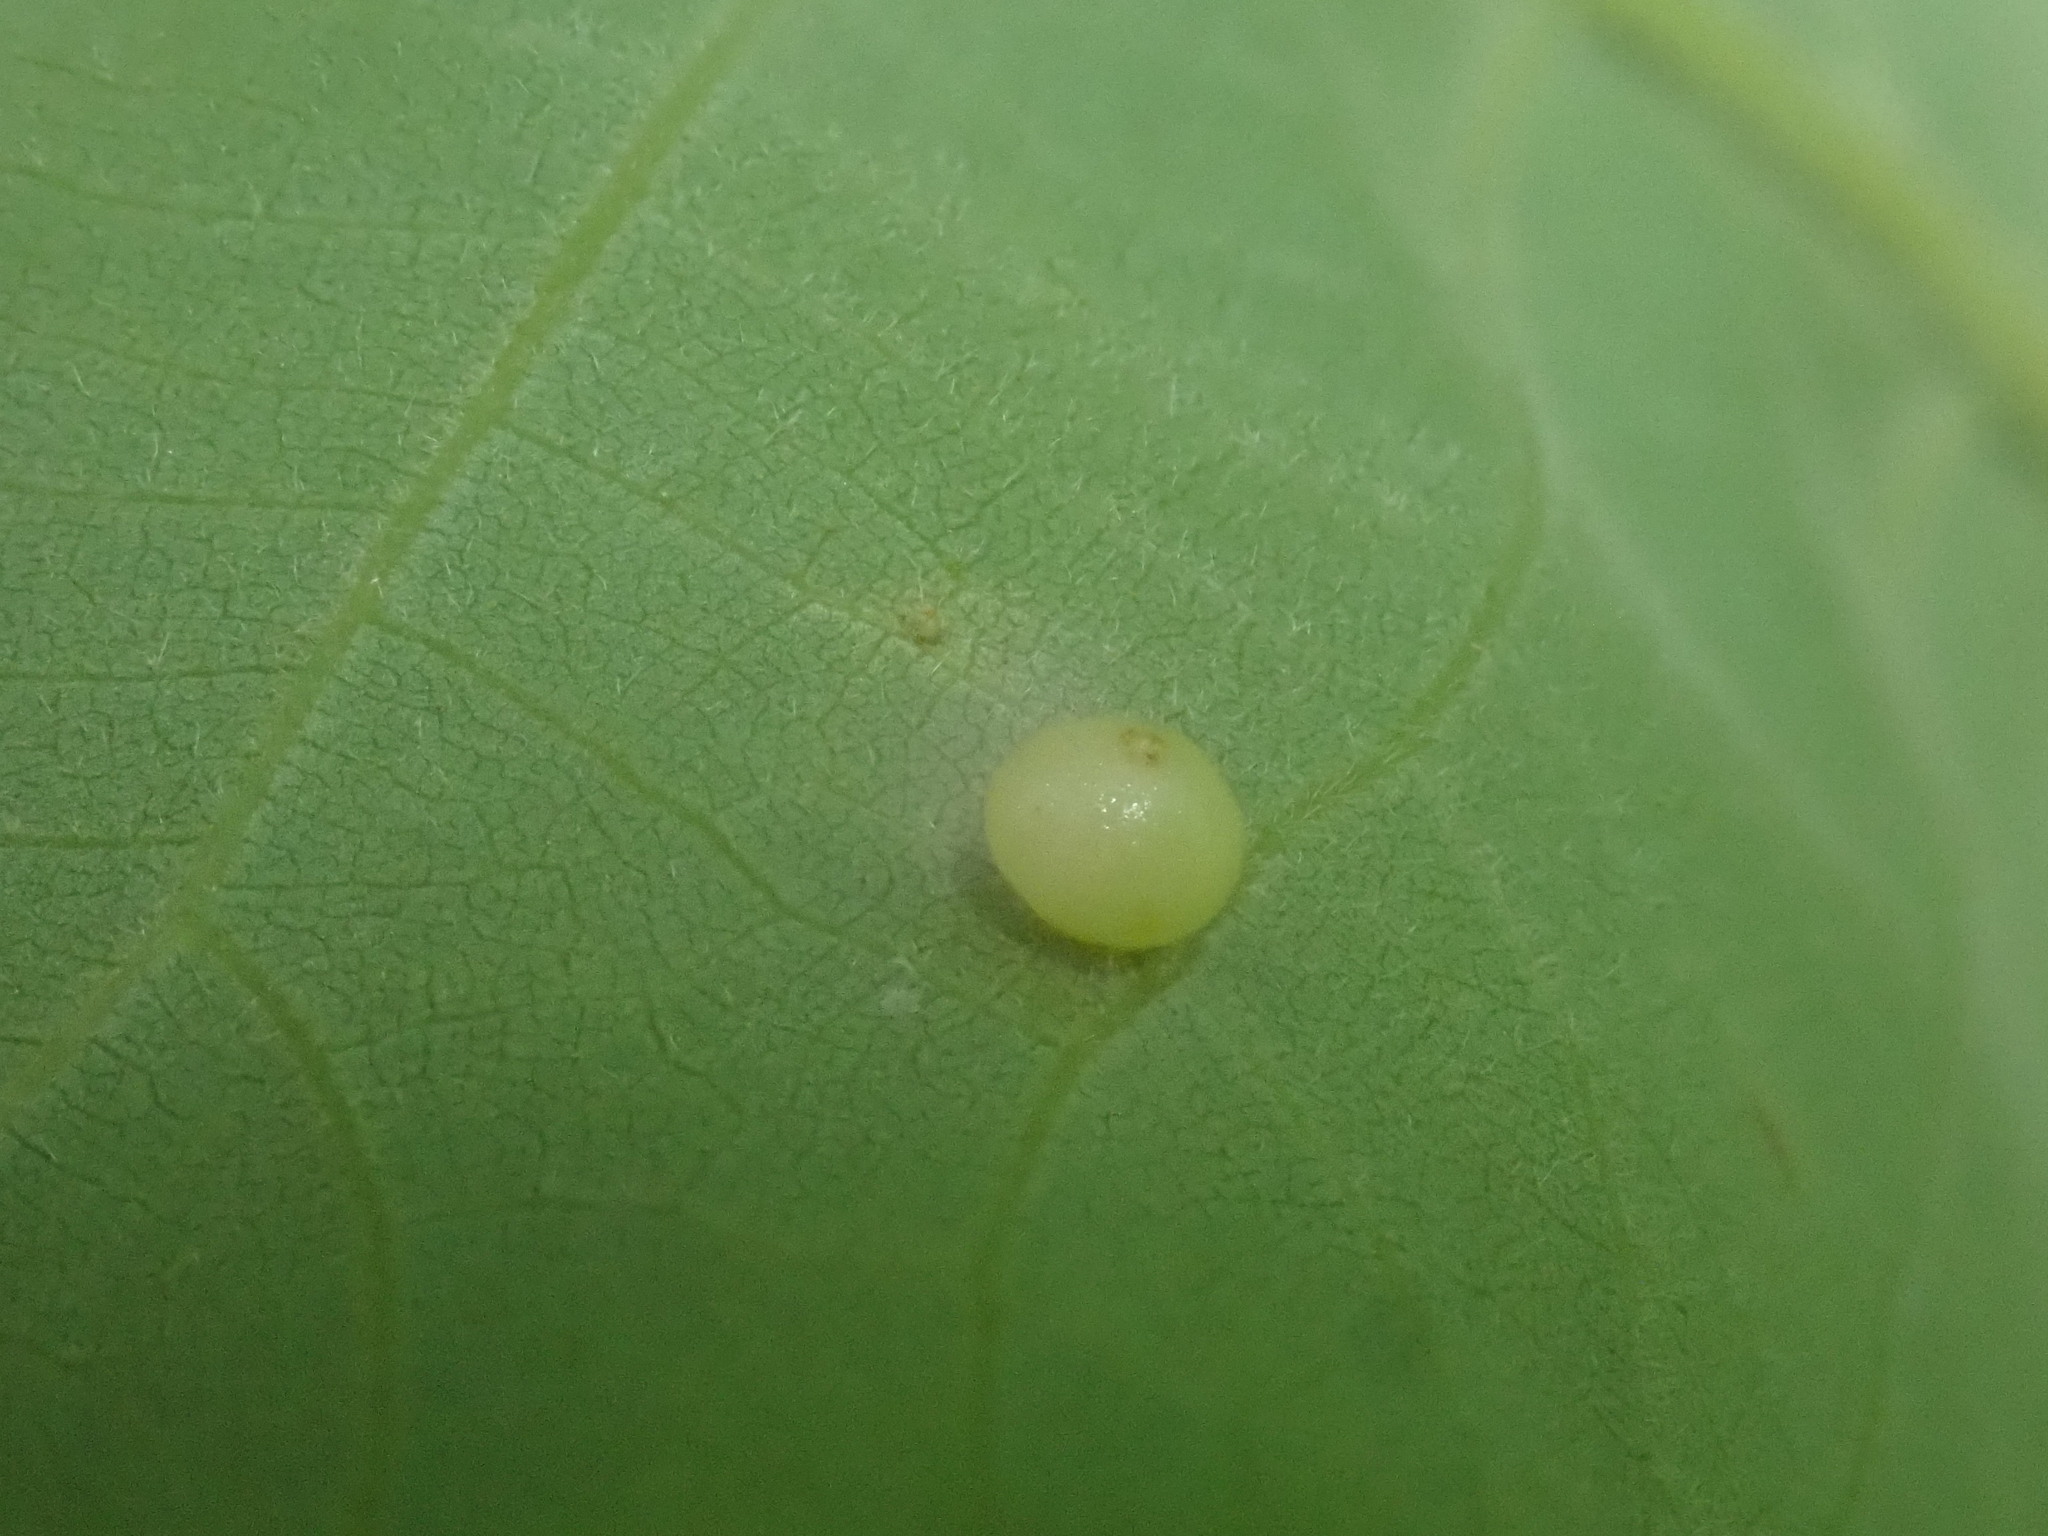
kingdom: Animalia
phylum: Arthropoda
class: Insecta
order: Diptera
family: Cecidomyiidae
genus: Caryomyia
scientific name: Caryomyia caryae
